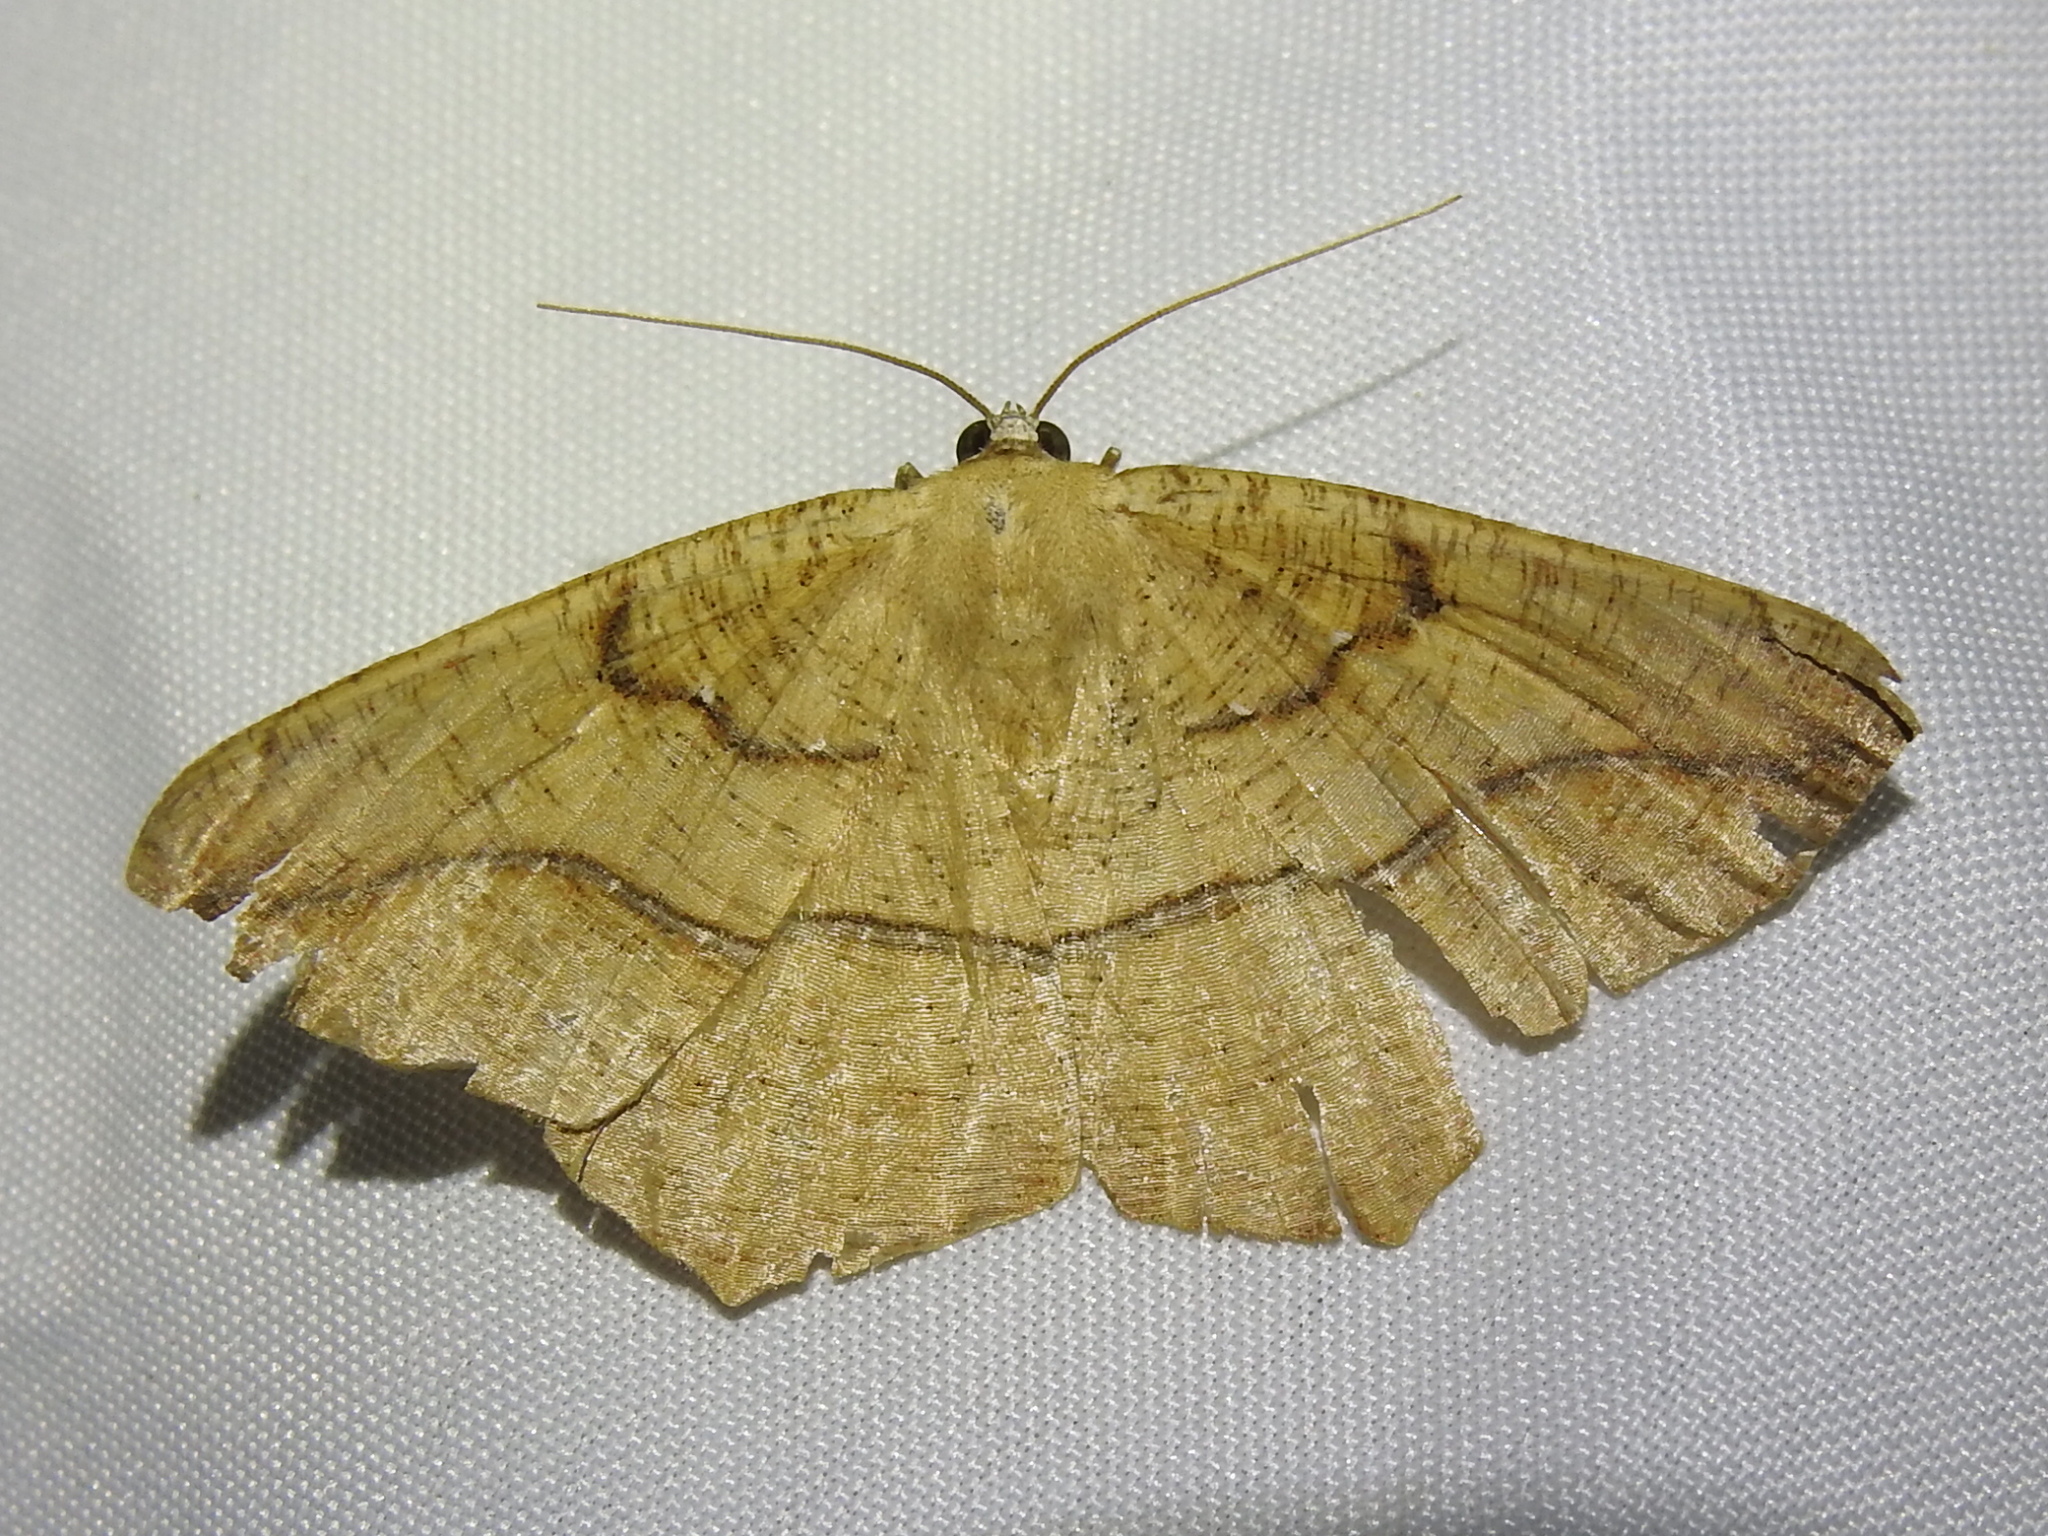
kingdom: Animalia
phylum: Arthropoda
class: Insecta
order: Lepidoptera
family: Geometridae
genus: Prochoerodes
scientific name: Prochoerodes lineola
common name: Large maple spanworm
